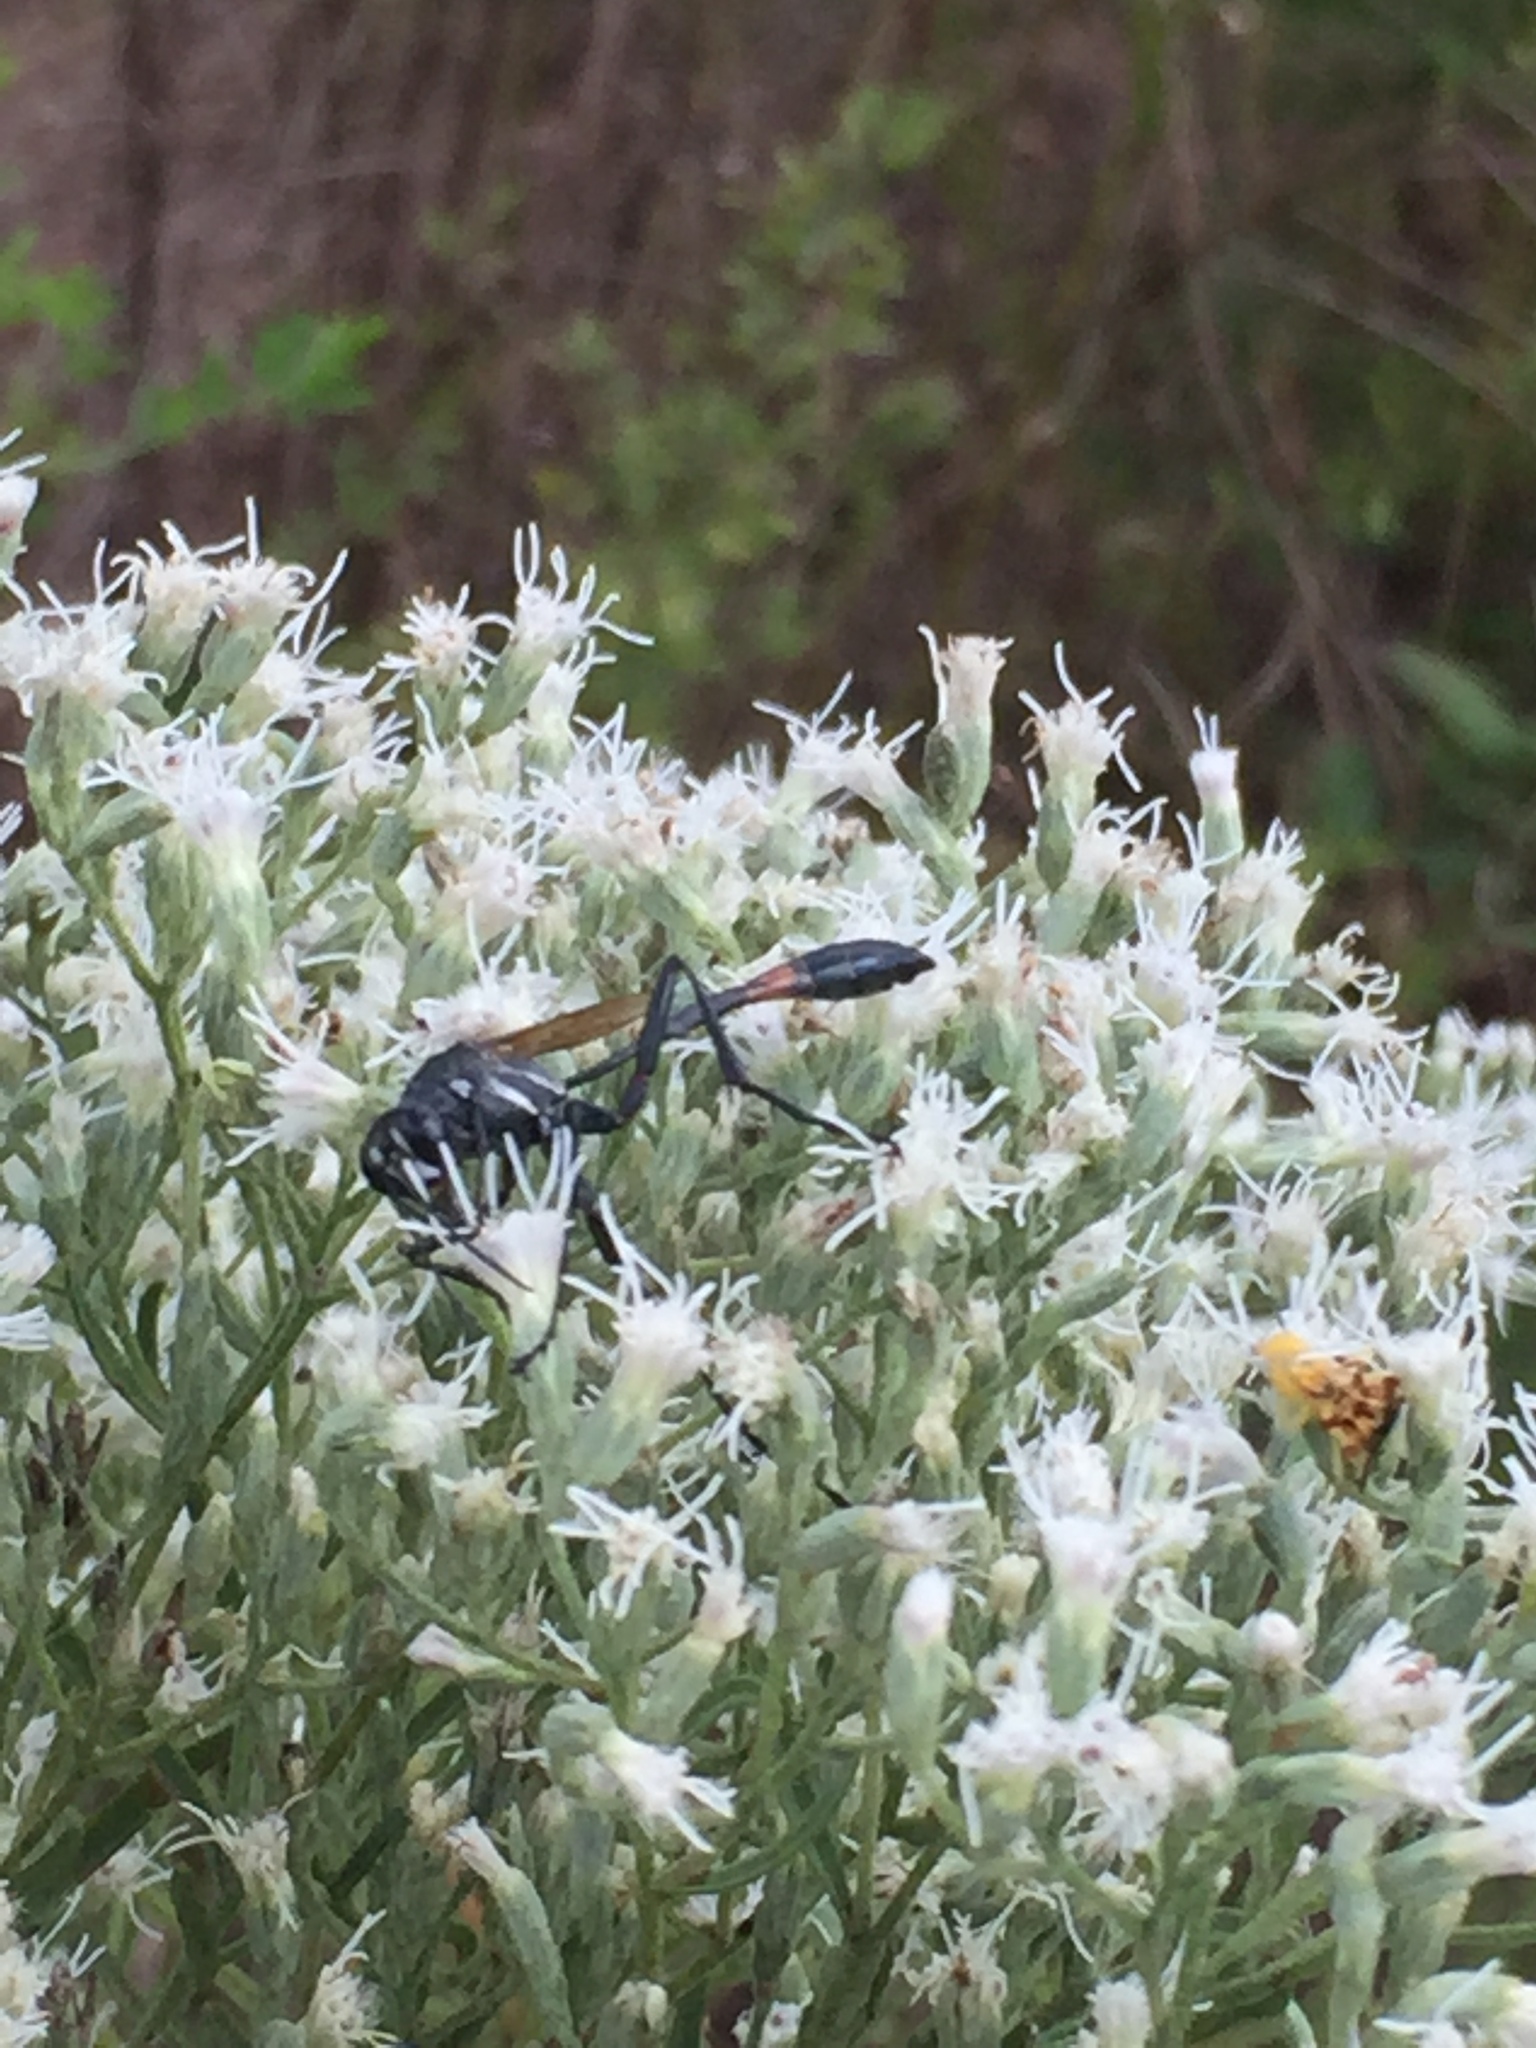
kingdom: Animalia
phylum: Arthropoda
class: Insecta
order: Hymenoptera
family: Sphecidae
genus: Ammophila
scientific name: Ammophila procera
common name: Common thread-waisted wasp
